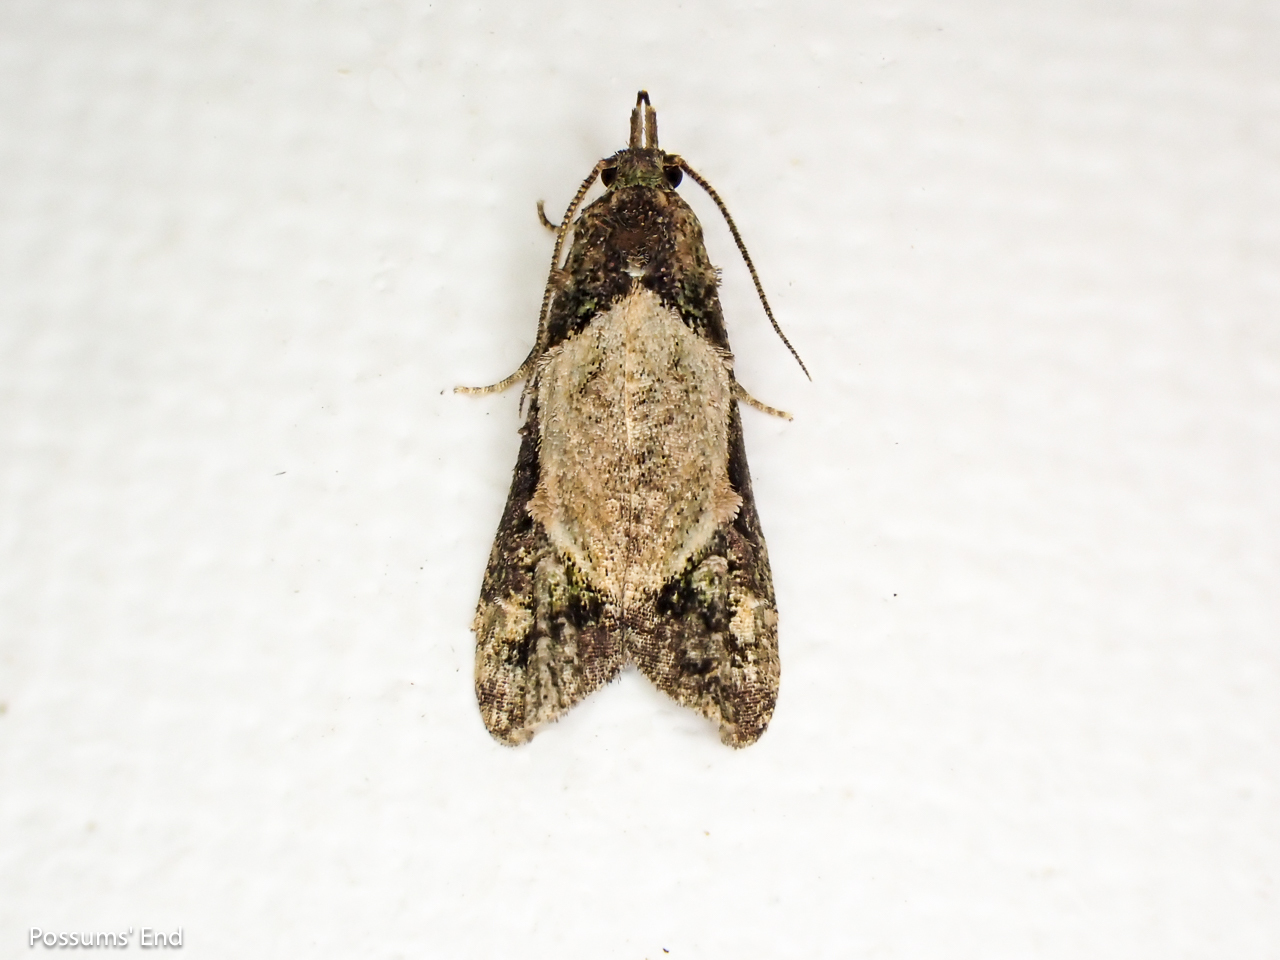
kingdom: Animalia
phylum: Arthropoda
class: Insecta
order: Lepidoptera
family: Copromorphidae
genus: Phycomorpha
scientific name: Phycomorpha metachrysa
